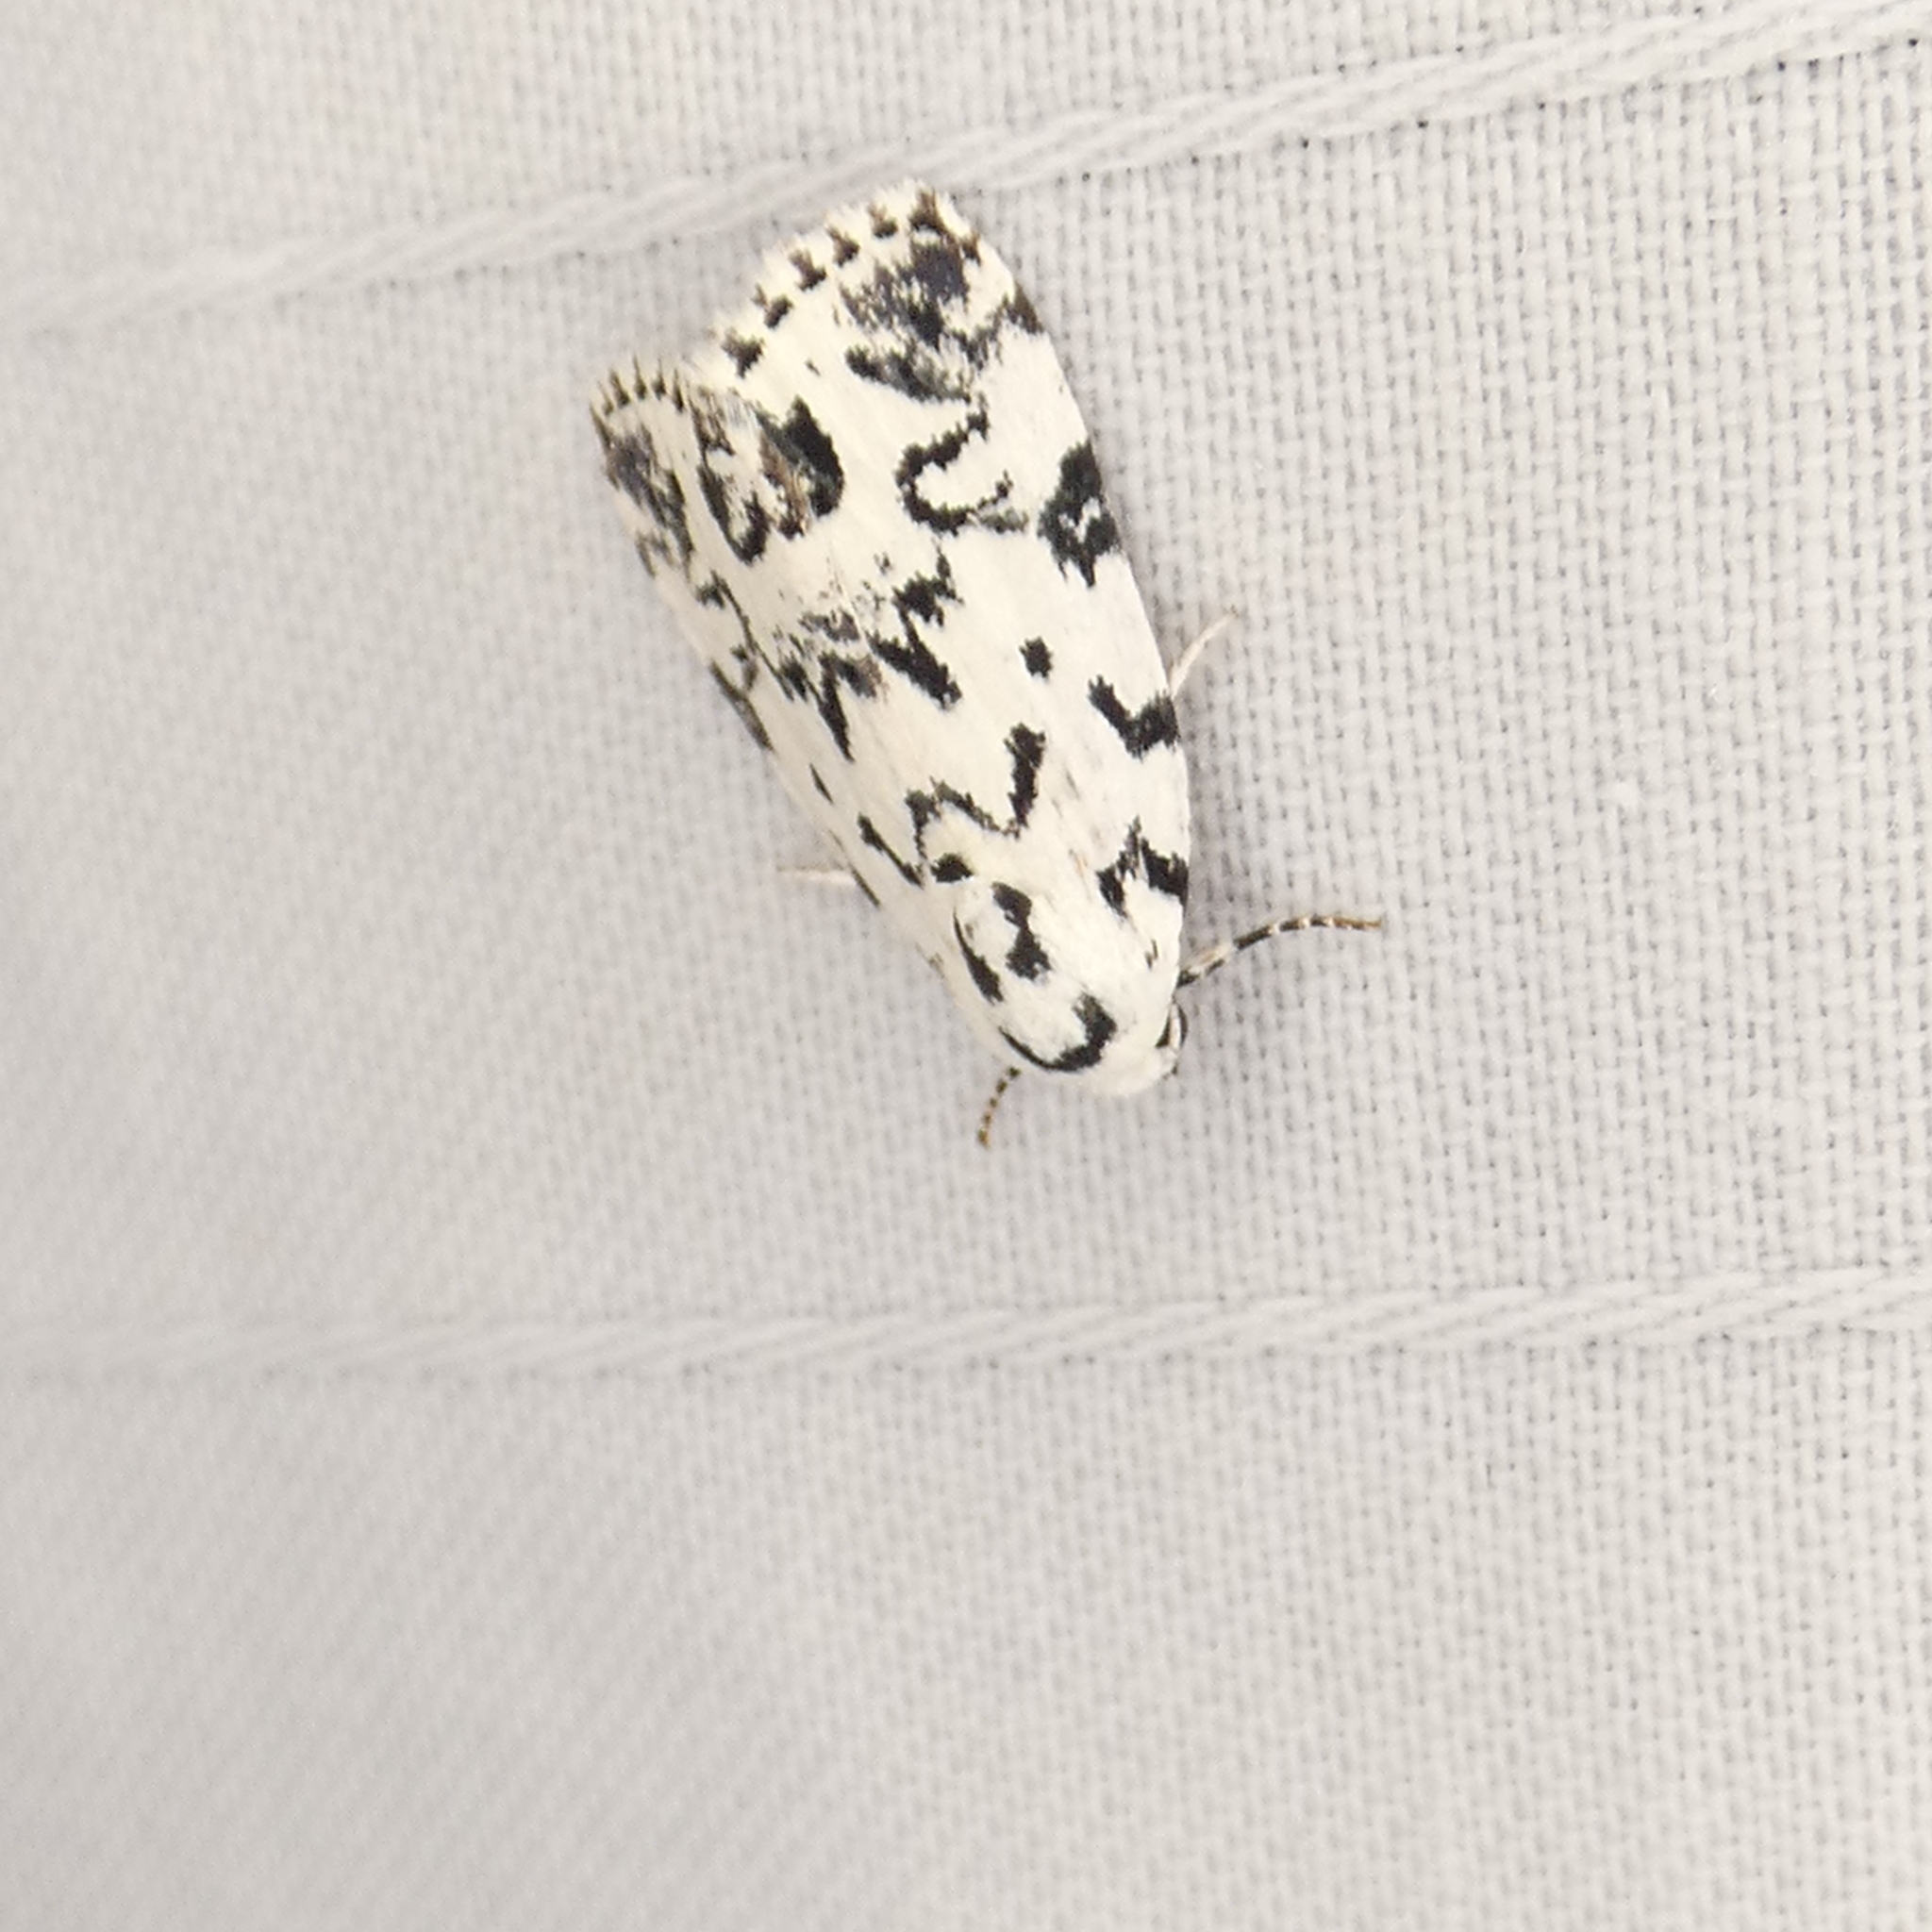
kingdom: Animalia
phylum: Arthropoda
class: Insecta
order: Lepidoptera
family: Noctuidae
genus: Polygrammate
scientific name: Polygrammate hebraeicum
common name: Hebrew moth
